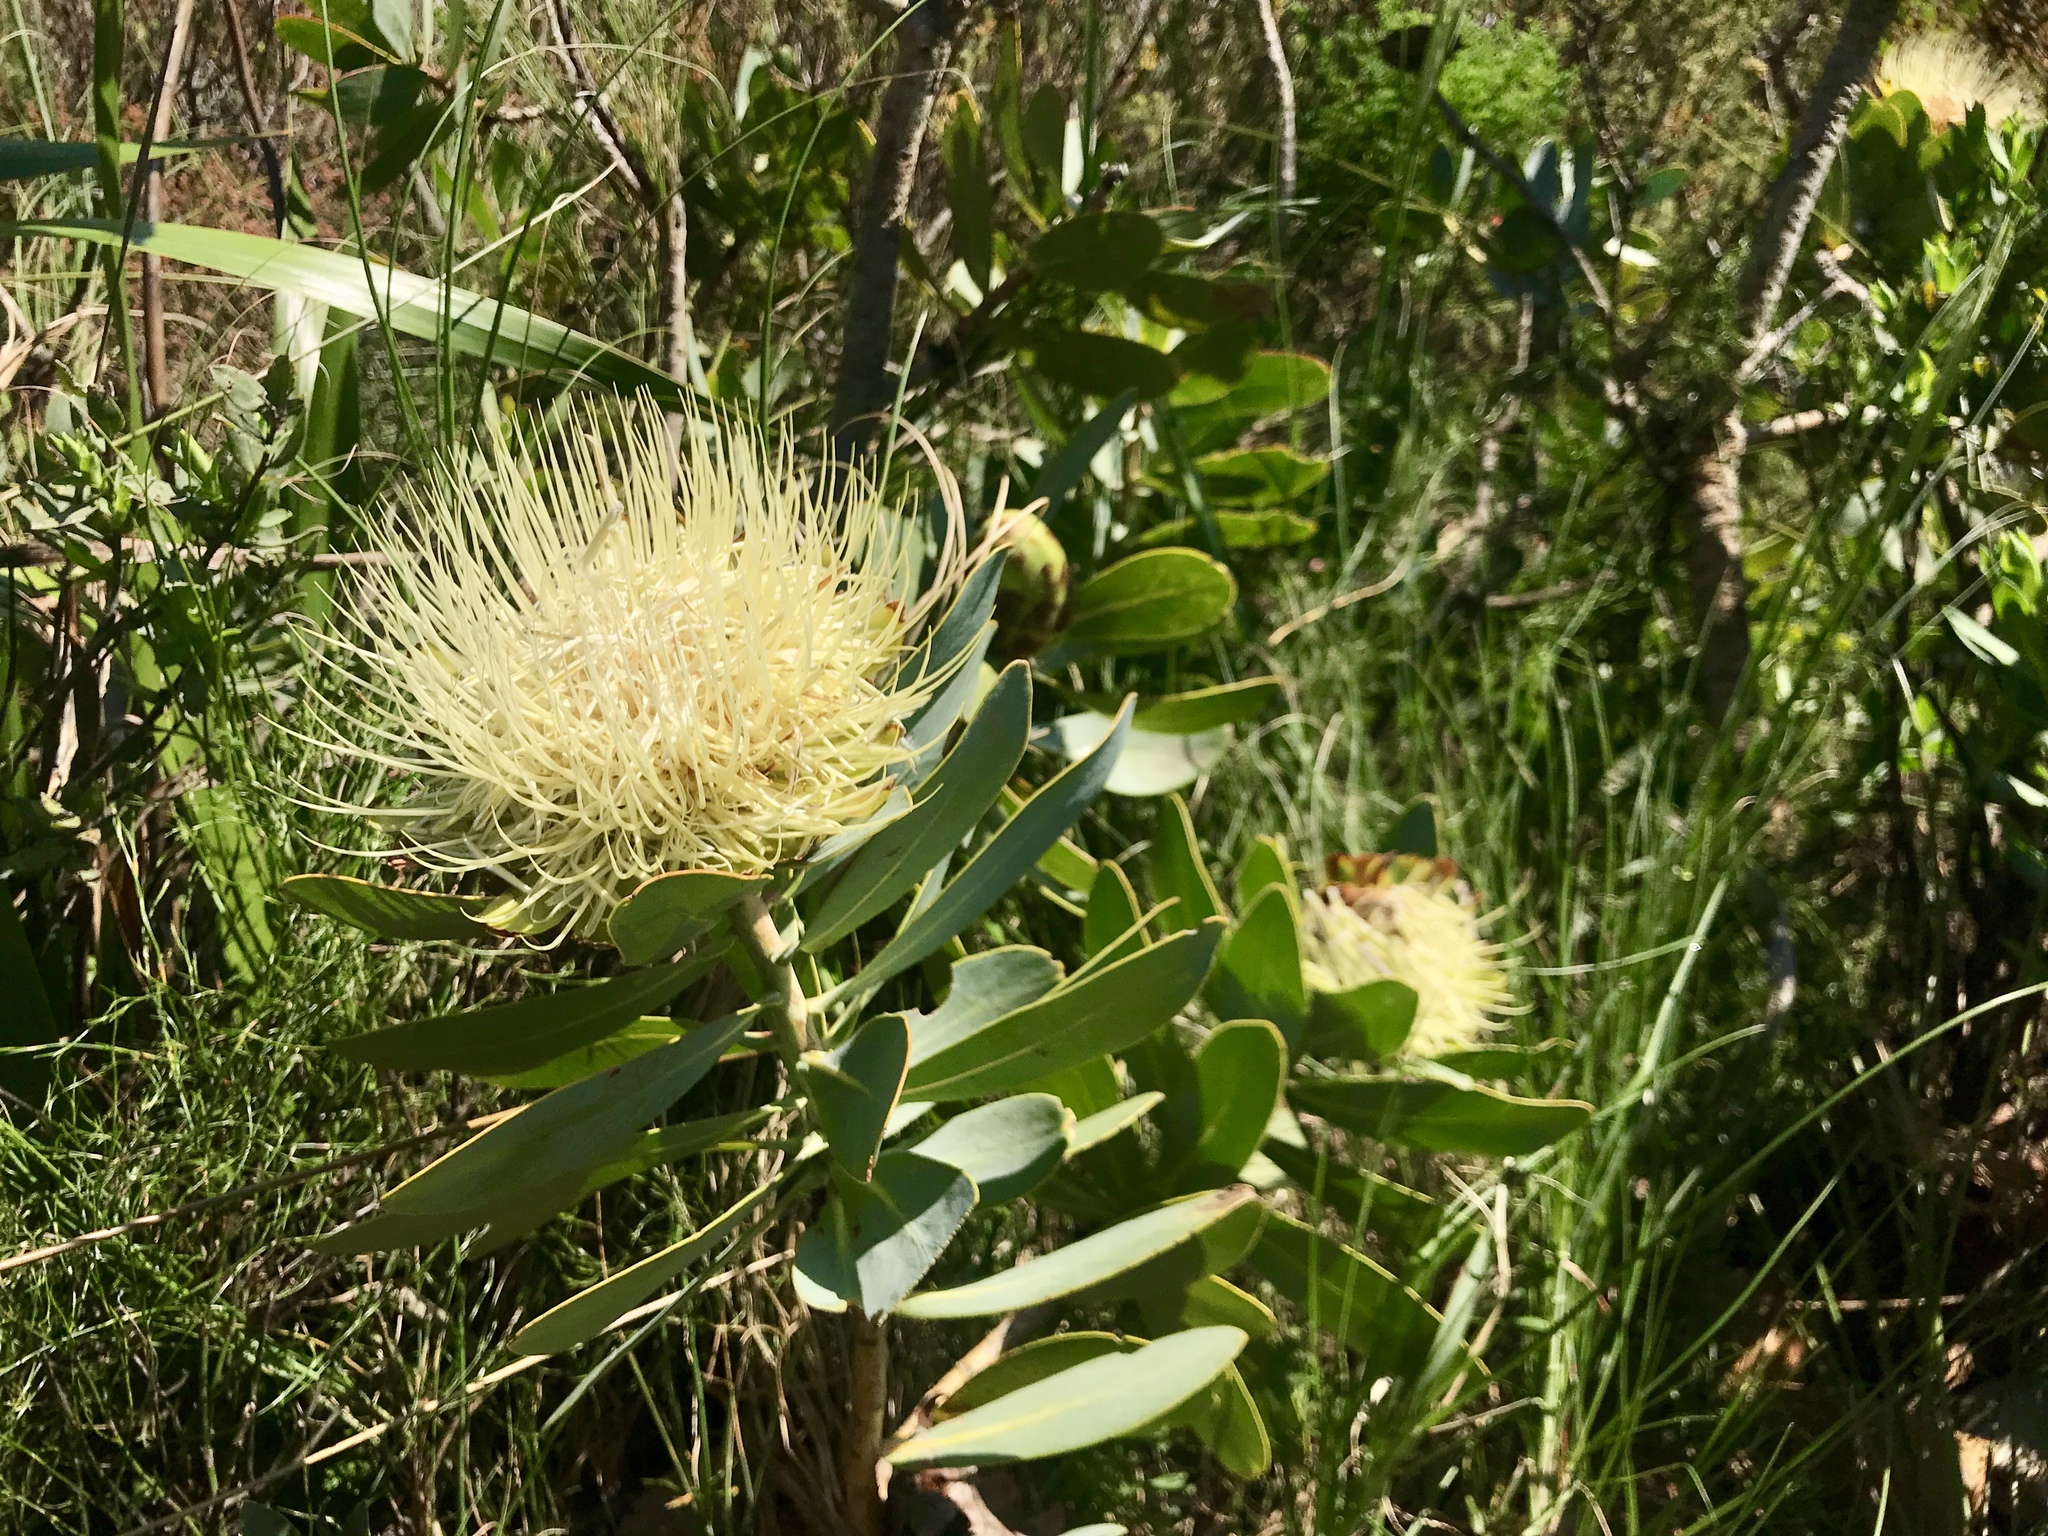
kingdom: Plantae
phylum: Tracheophyta
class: Magnoliopsida
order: Proteales
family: Proteaceae
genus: Protea
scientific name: Protea nitida
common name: Tree protea
